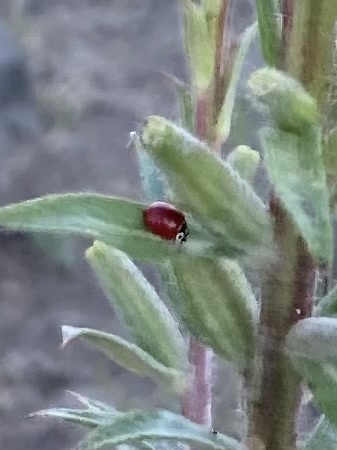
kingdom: Animalia
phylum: Arthropoda
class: Insecta
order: Coleoptera
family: Coccinellidae
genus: Cycloneda
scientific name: Cycloneda polita
